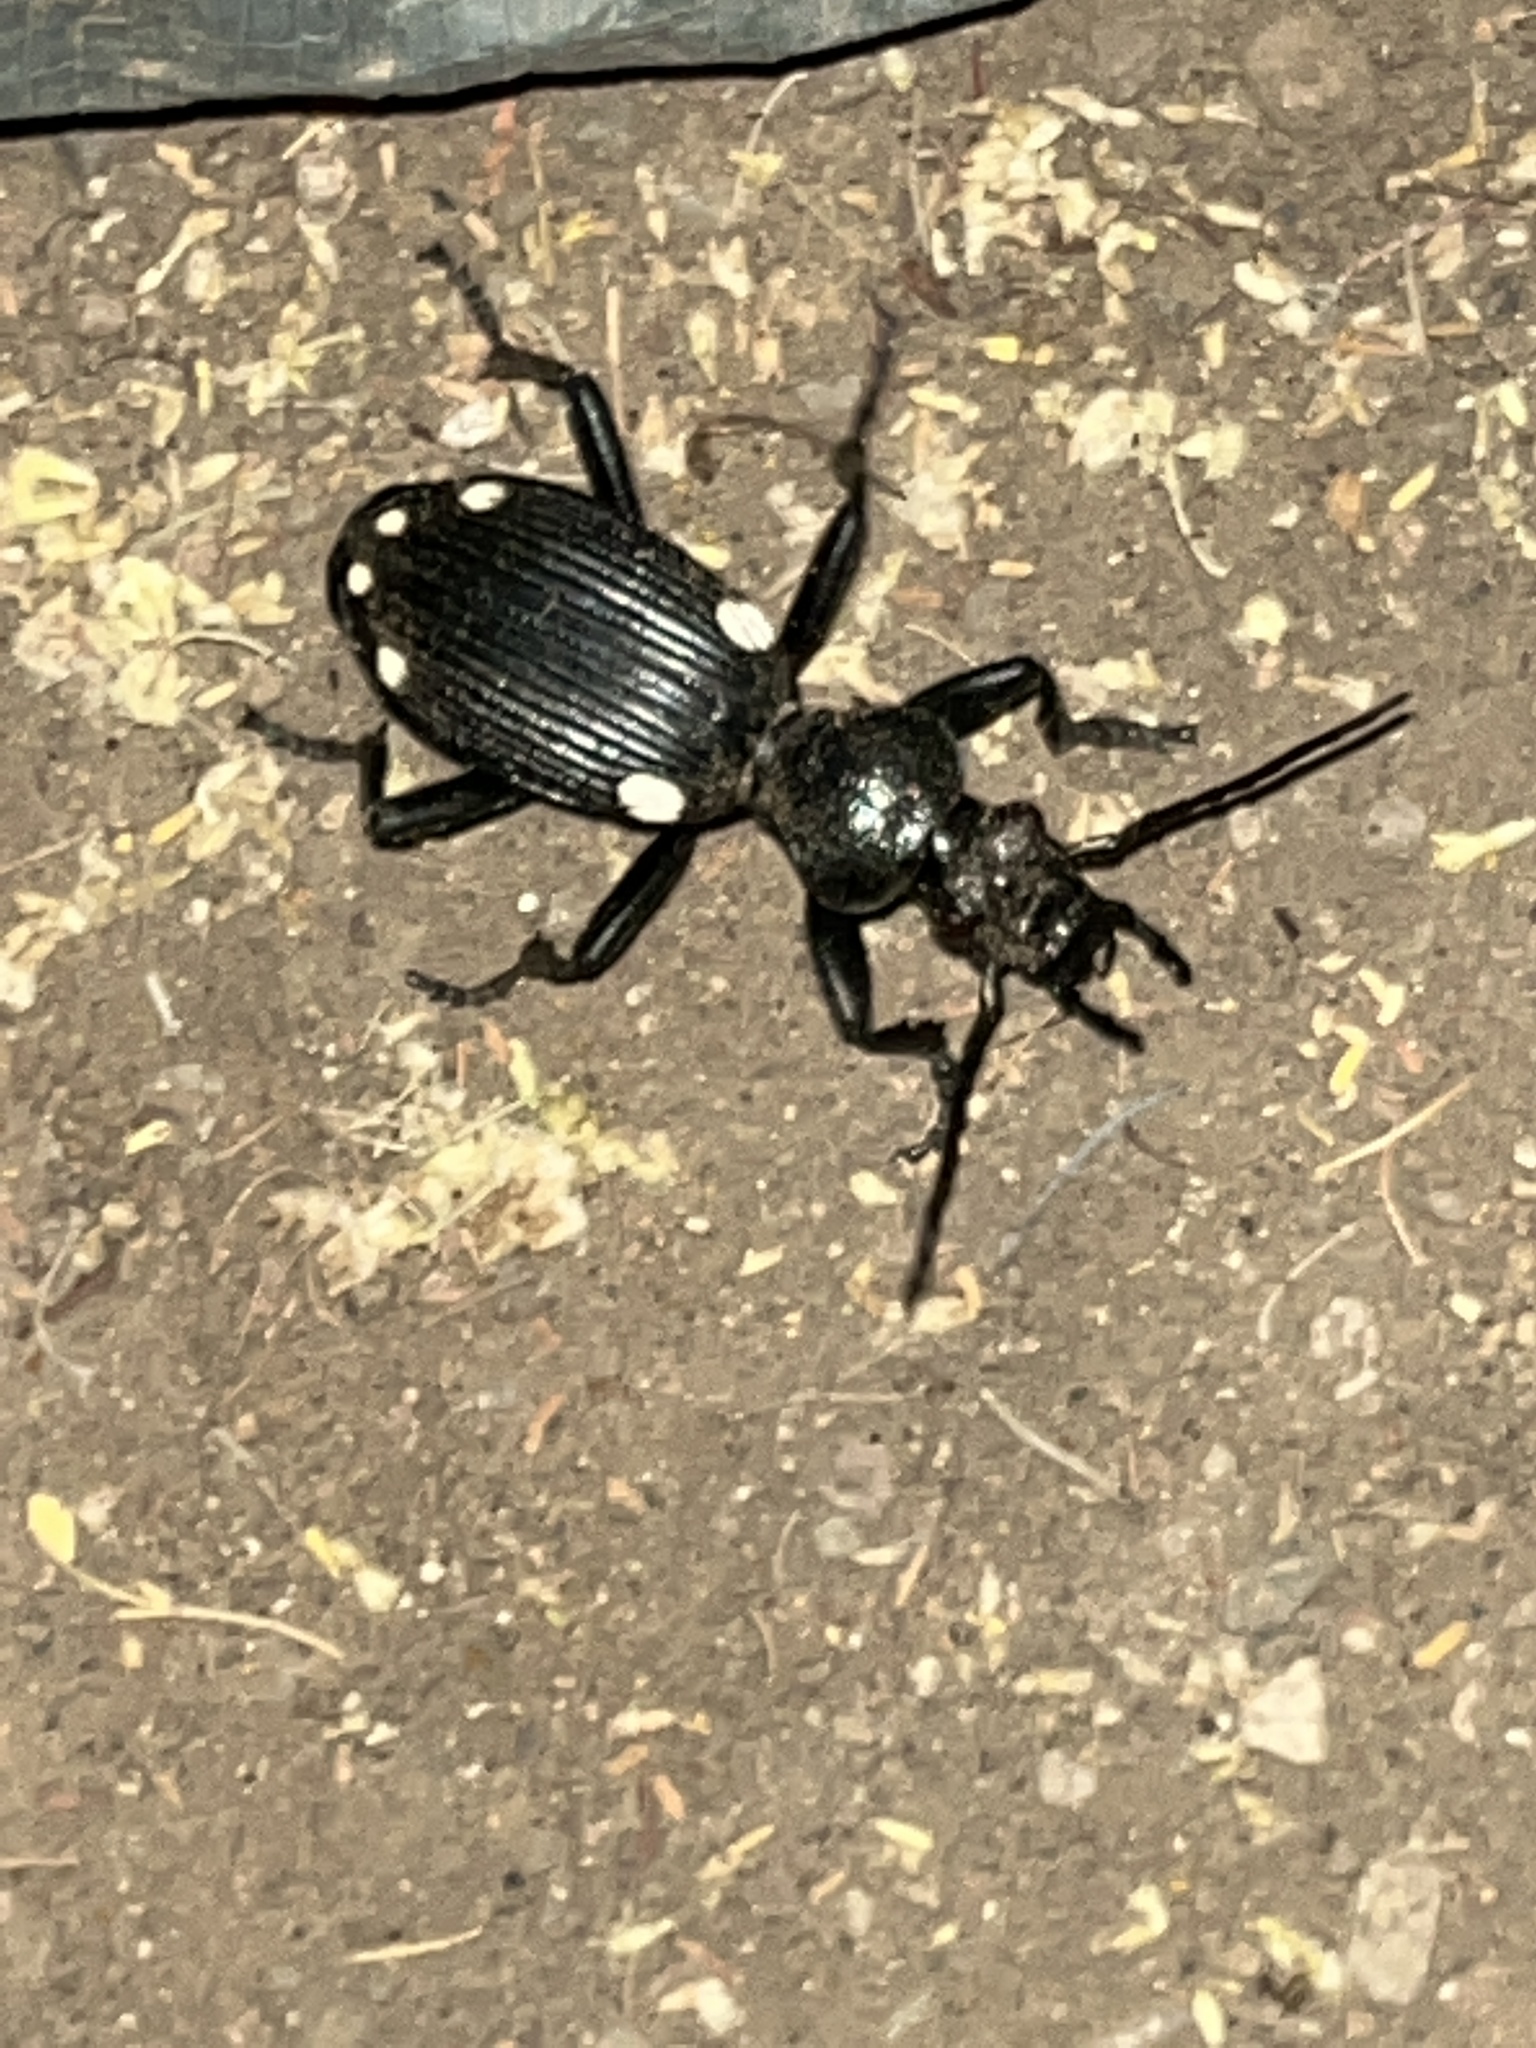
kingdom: Animalia
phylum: Arthropoda
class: Insecta
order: Coleoptera
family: Carabidae
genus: Anthia
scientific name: Anthia hexasticta
